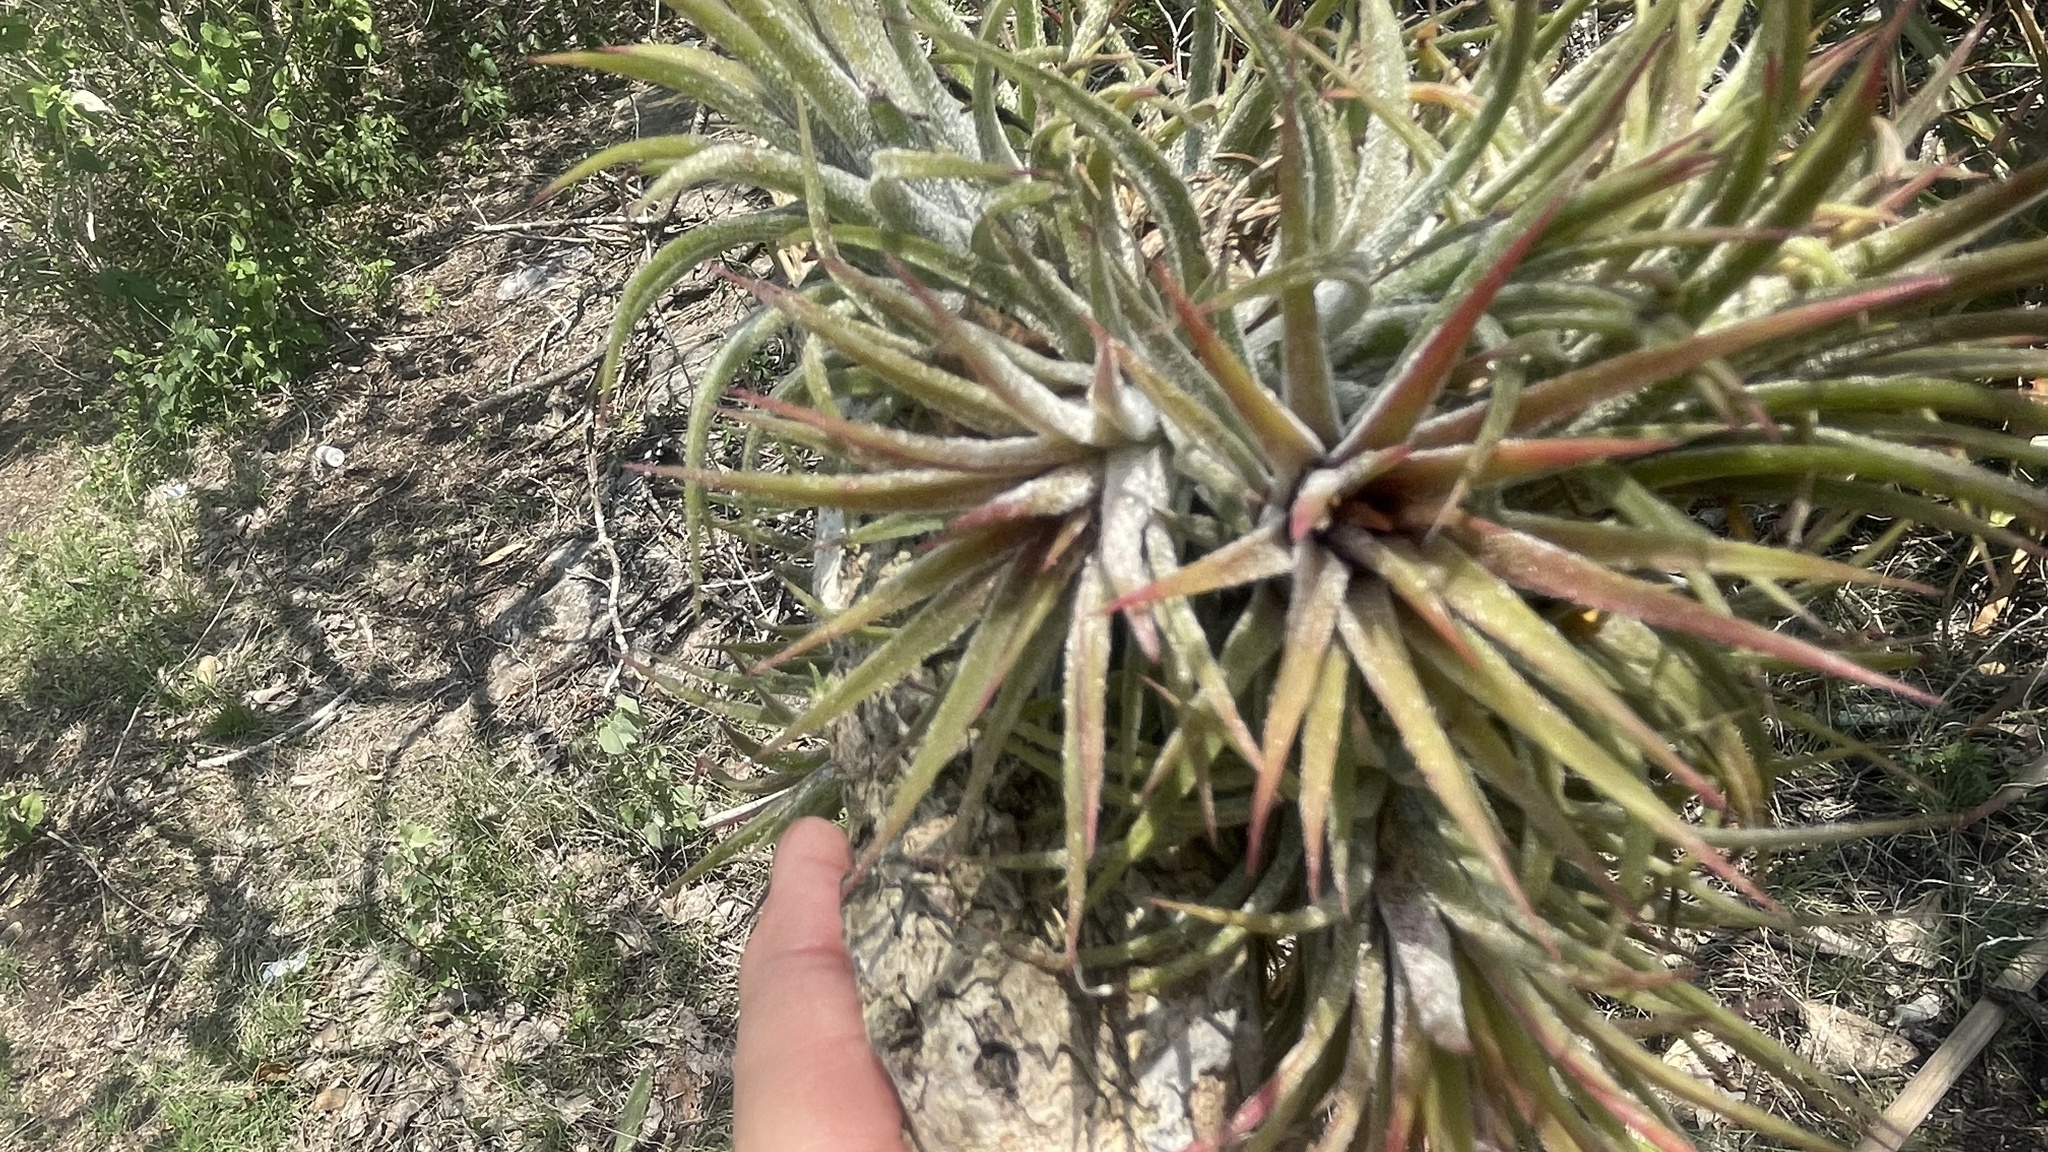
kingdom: Plantae
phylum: Tracheophyta
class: Liliopsida
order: Poales
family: Bromeliaceae
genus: Tillandsia
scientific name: Tillandsia ionantha
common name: Sky plant
